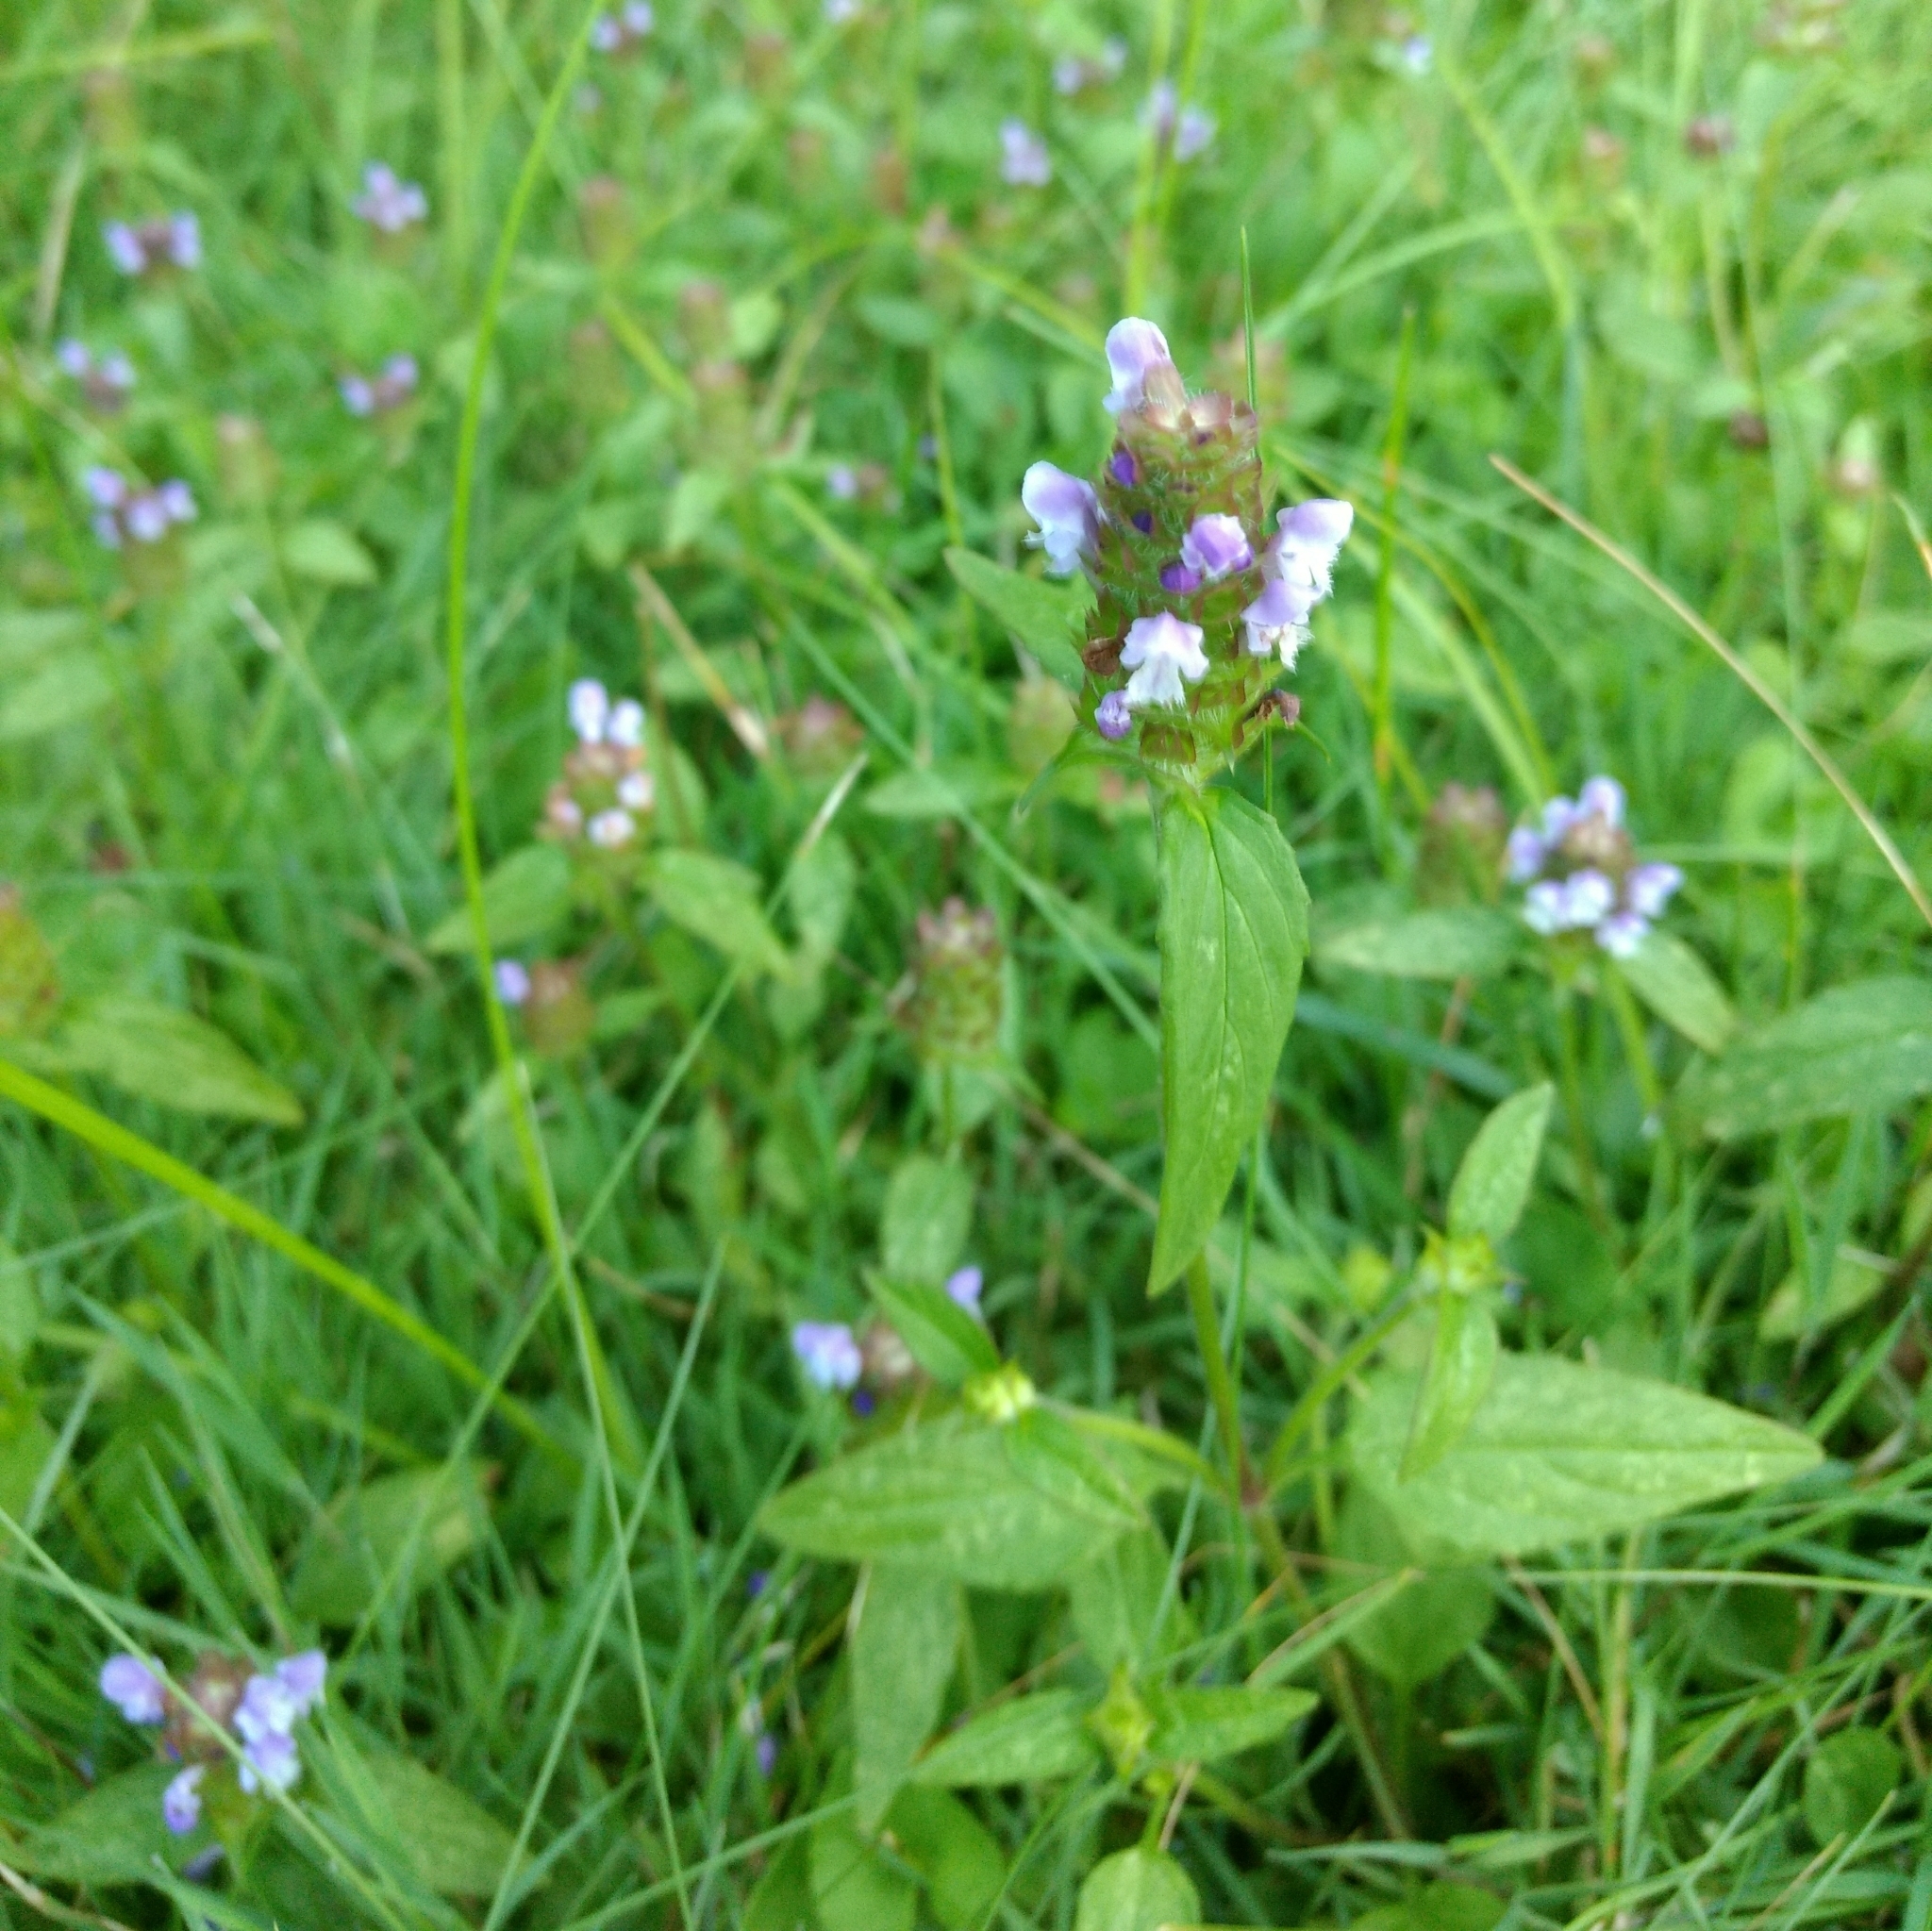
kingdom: Plantae
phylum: Tracheophyta
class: Magnoliopsida
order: Lamiales
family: Lamiaceae
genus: Prunella
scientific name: Prunella vulgaris
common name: Heal-all
